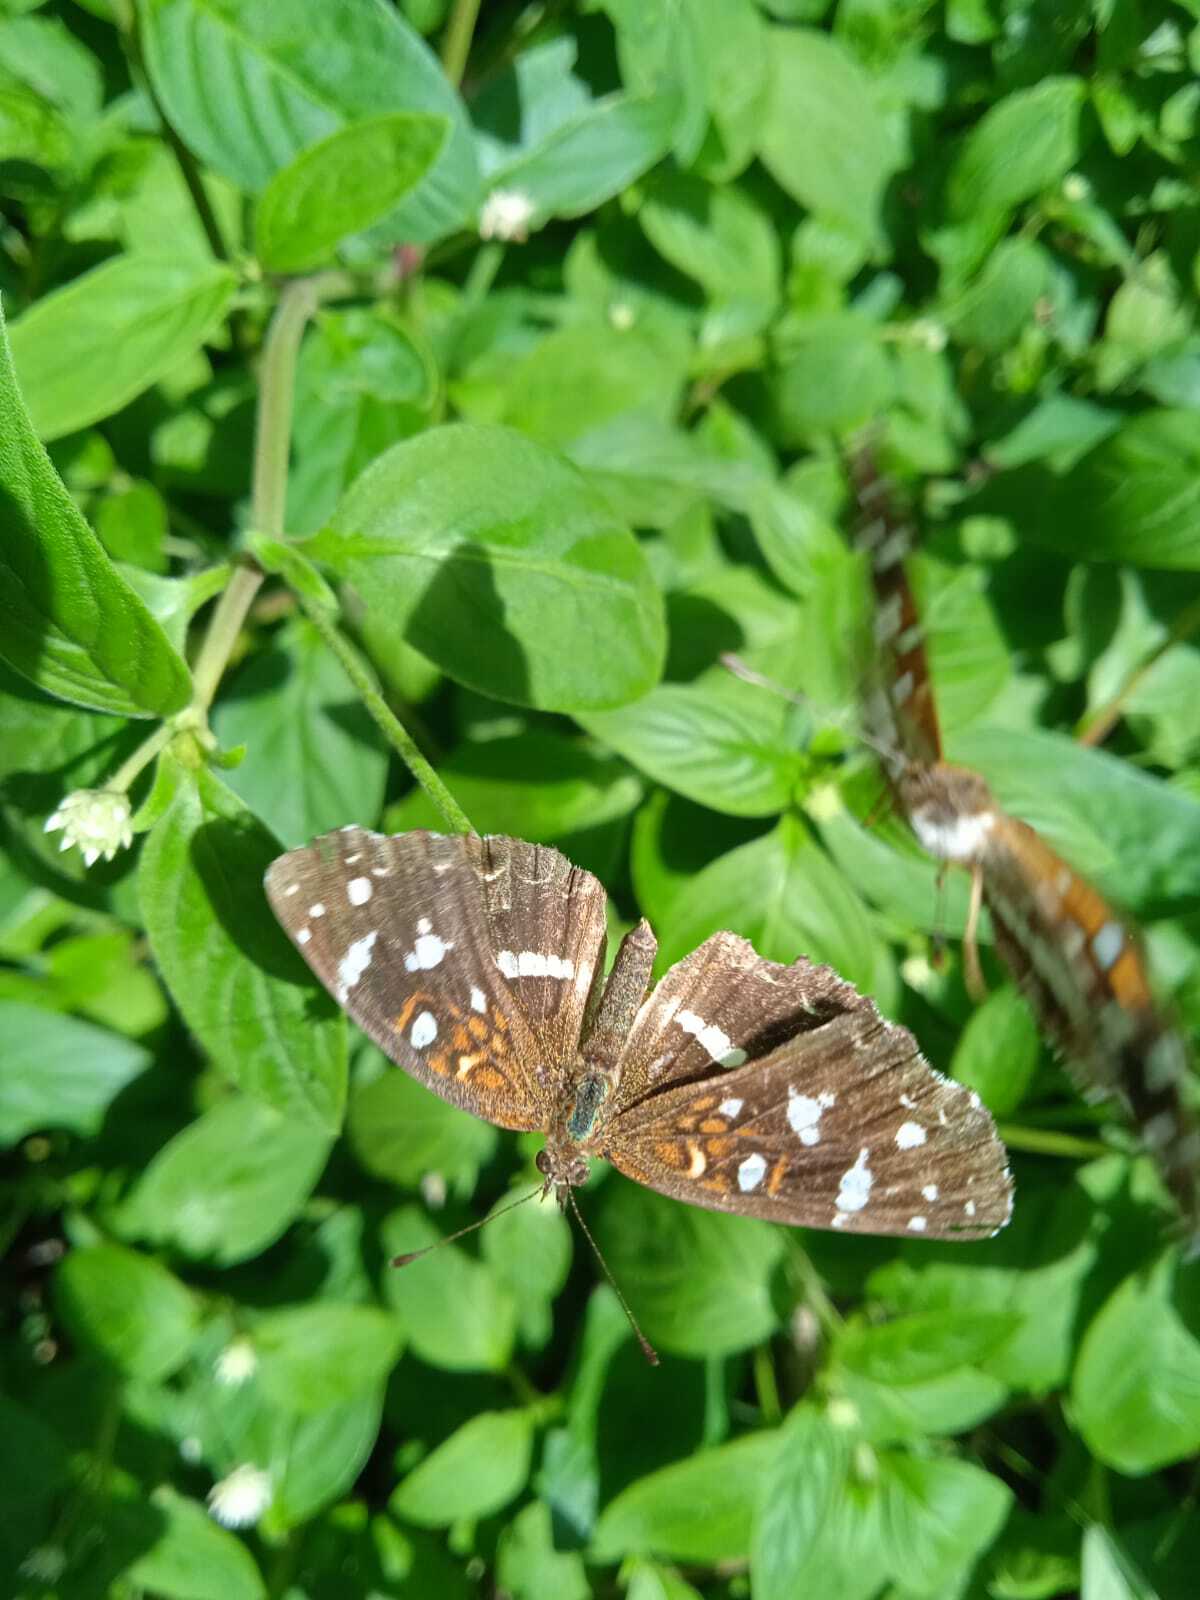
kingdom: Animalia
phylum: Arthropoda
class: Insecta
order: Lepidoptera
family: Nymphalidae
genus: Ortilia
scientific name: Ortilia ithra
